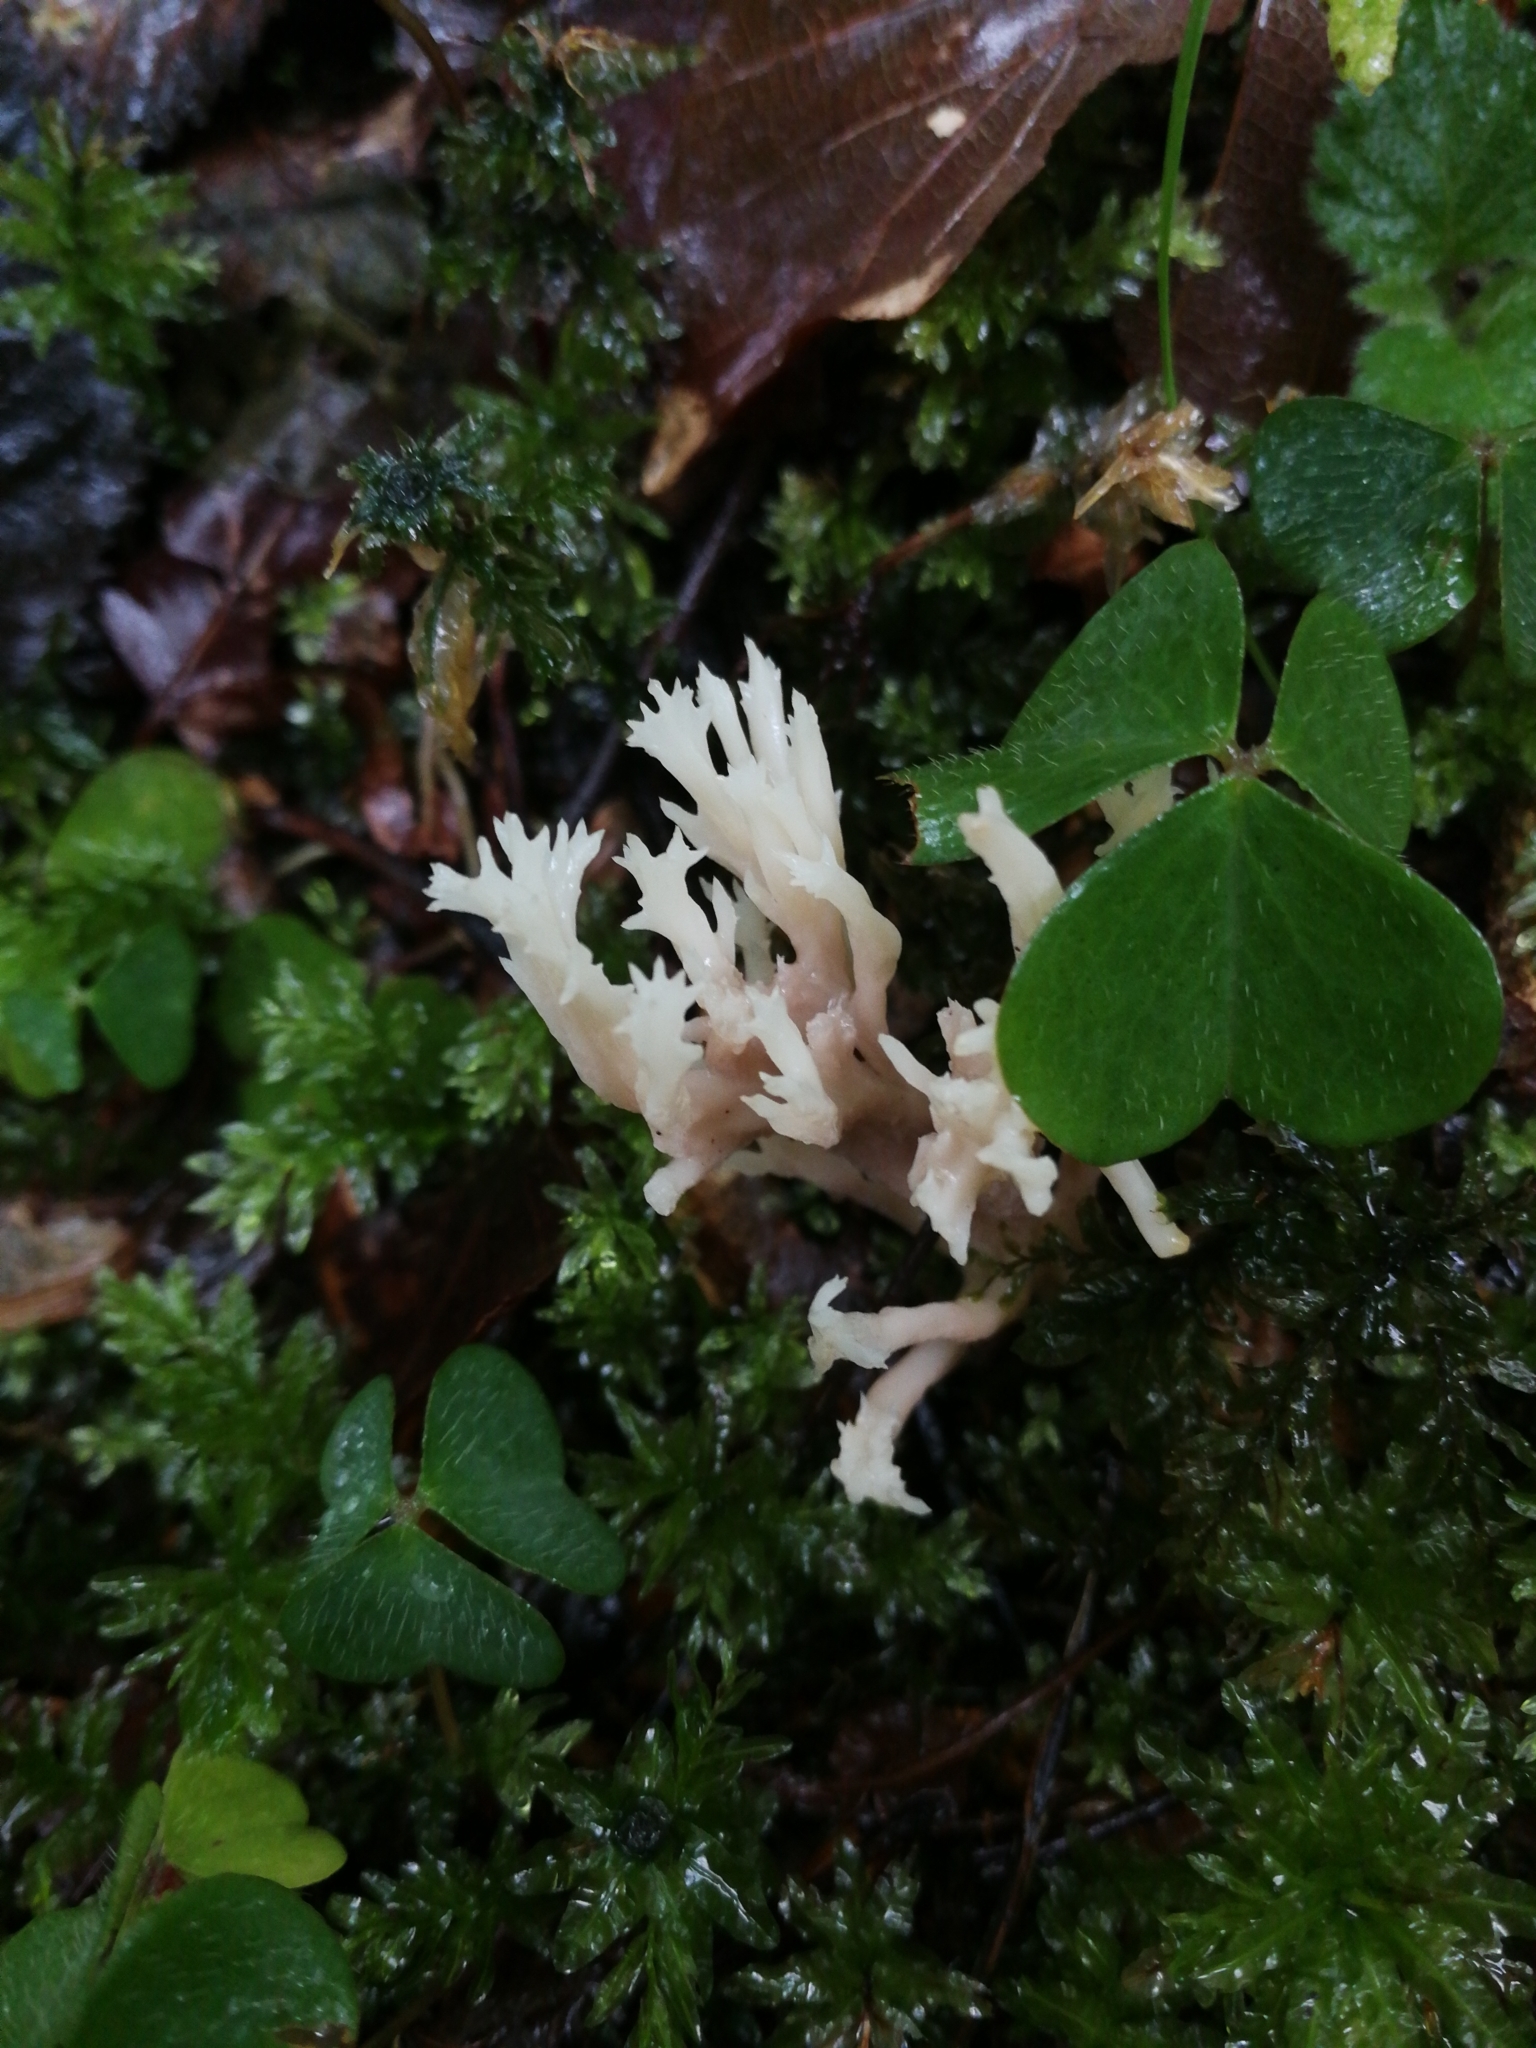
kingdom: Fungi
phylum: Basidiomycota
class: Agaricomycetes
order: Cantharellales
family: Hydnaceae
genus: Clavulina
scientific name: Clavulina coralloides
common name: Crested coral
